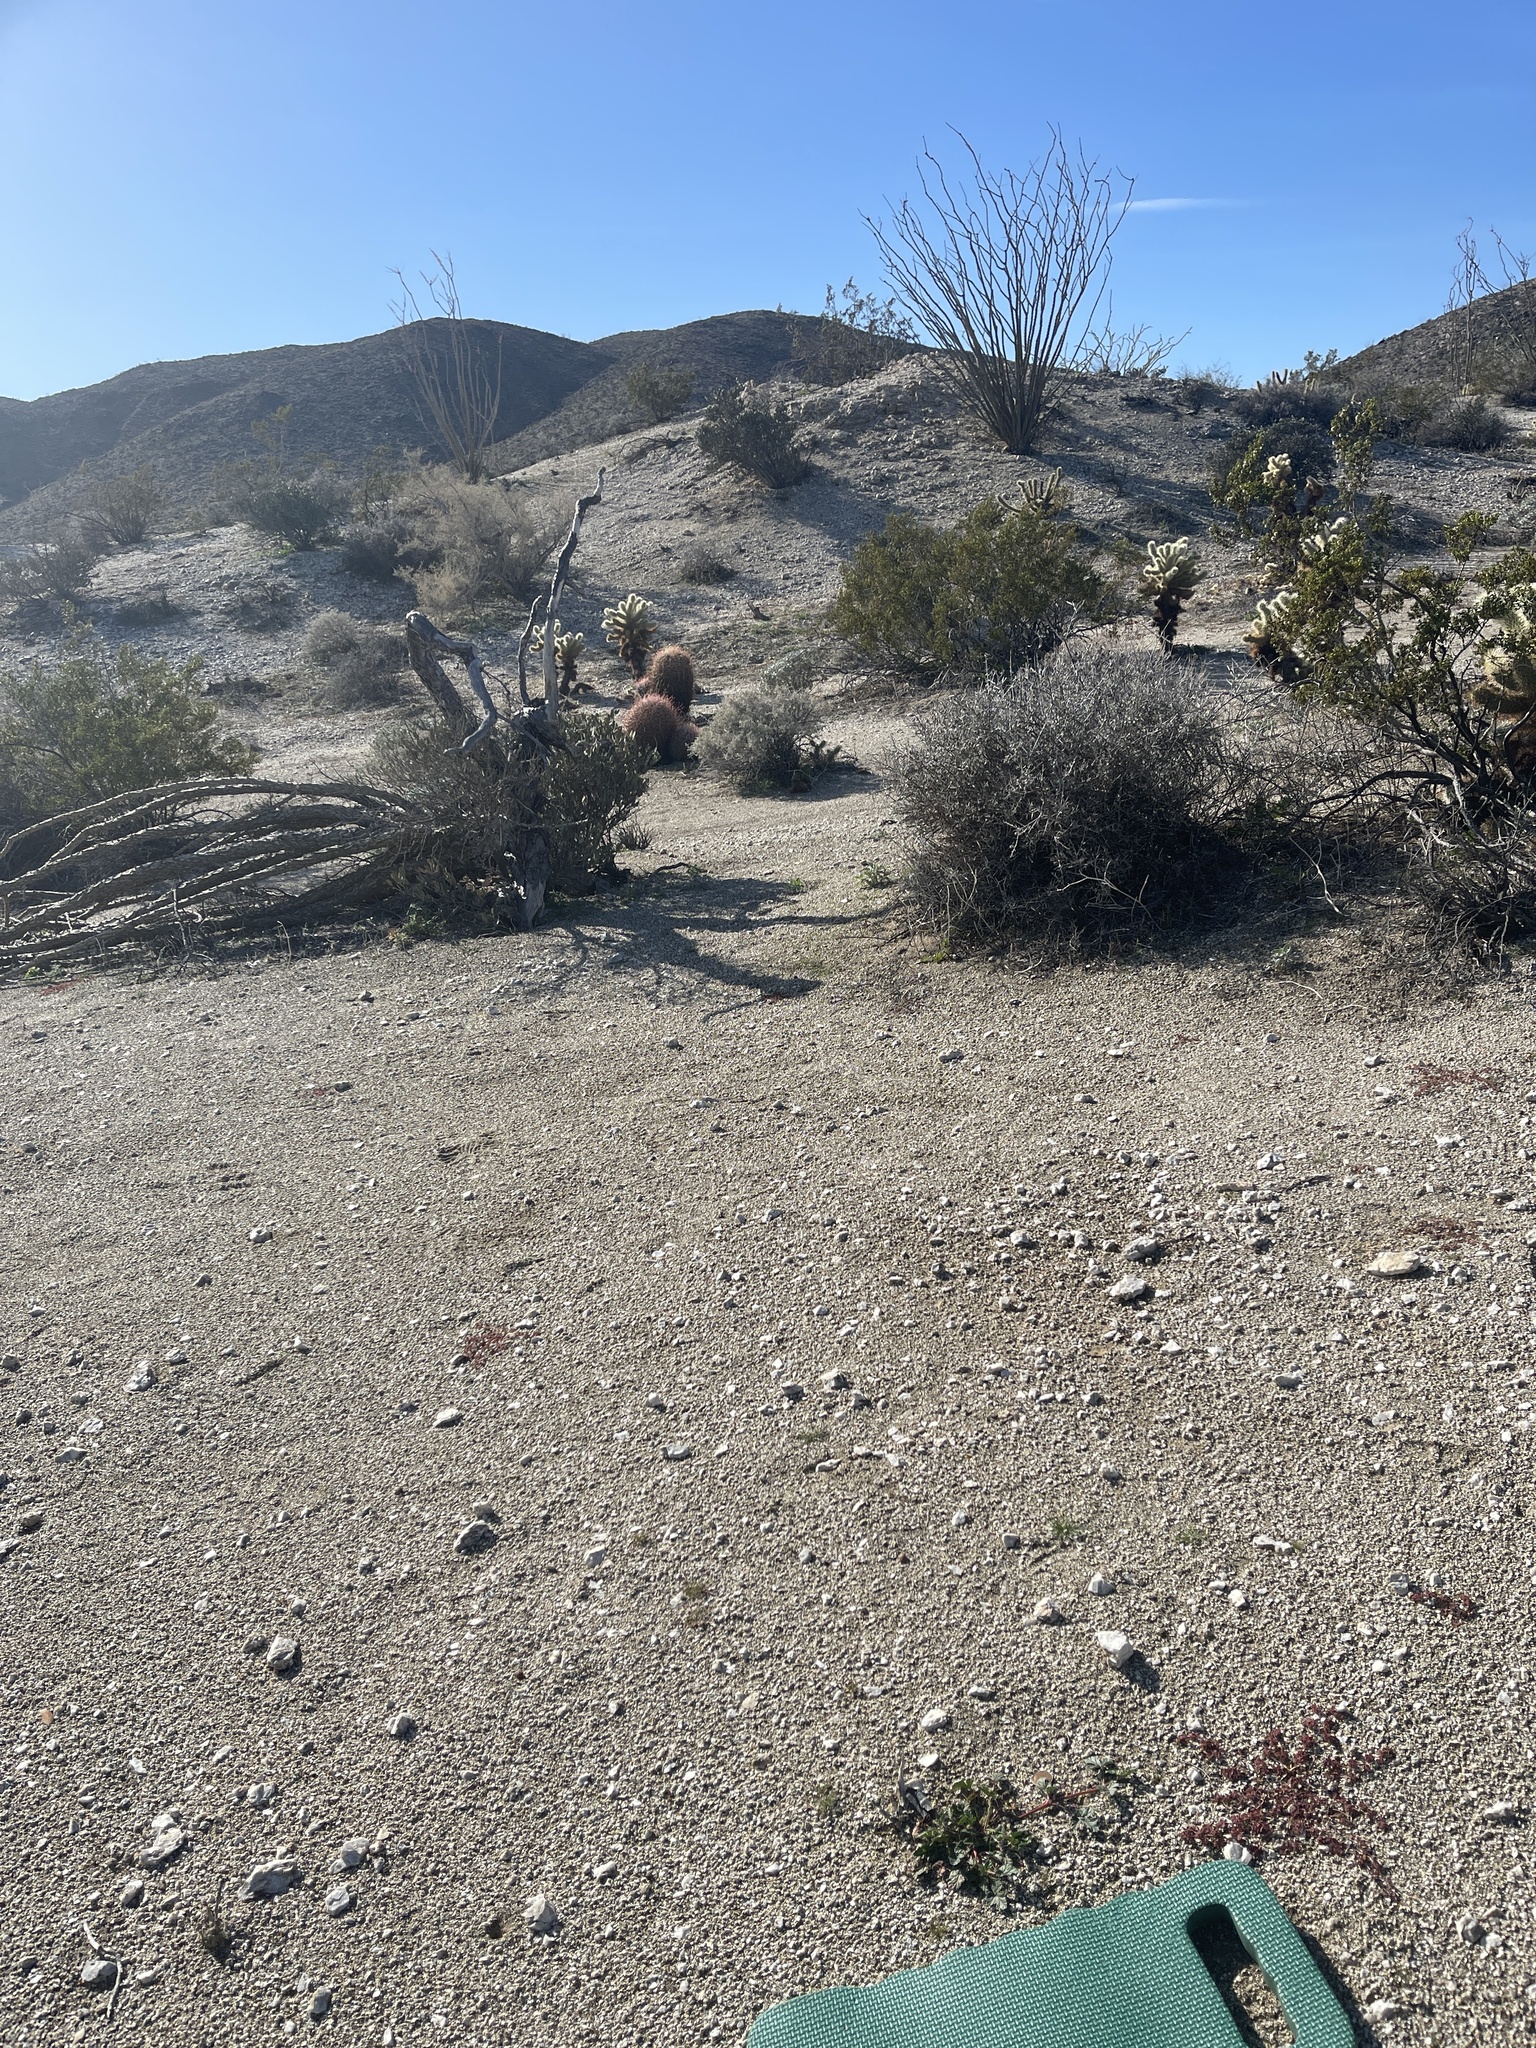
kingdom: Plantae
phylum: Tracheophyta
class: Magnoliopsida
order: Geraniales
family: Geraniaceae
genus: Erodium
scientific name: Erodium texanum
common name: Texas stork's-bill
